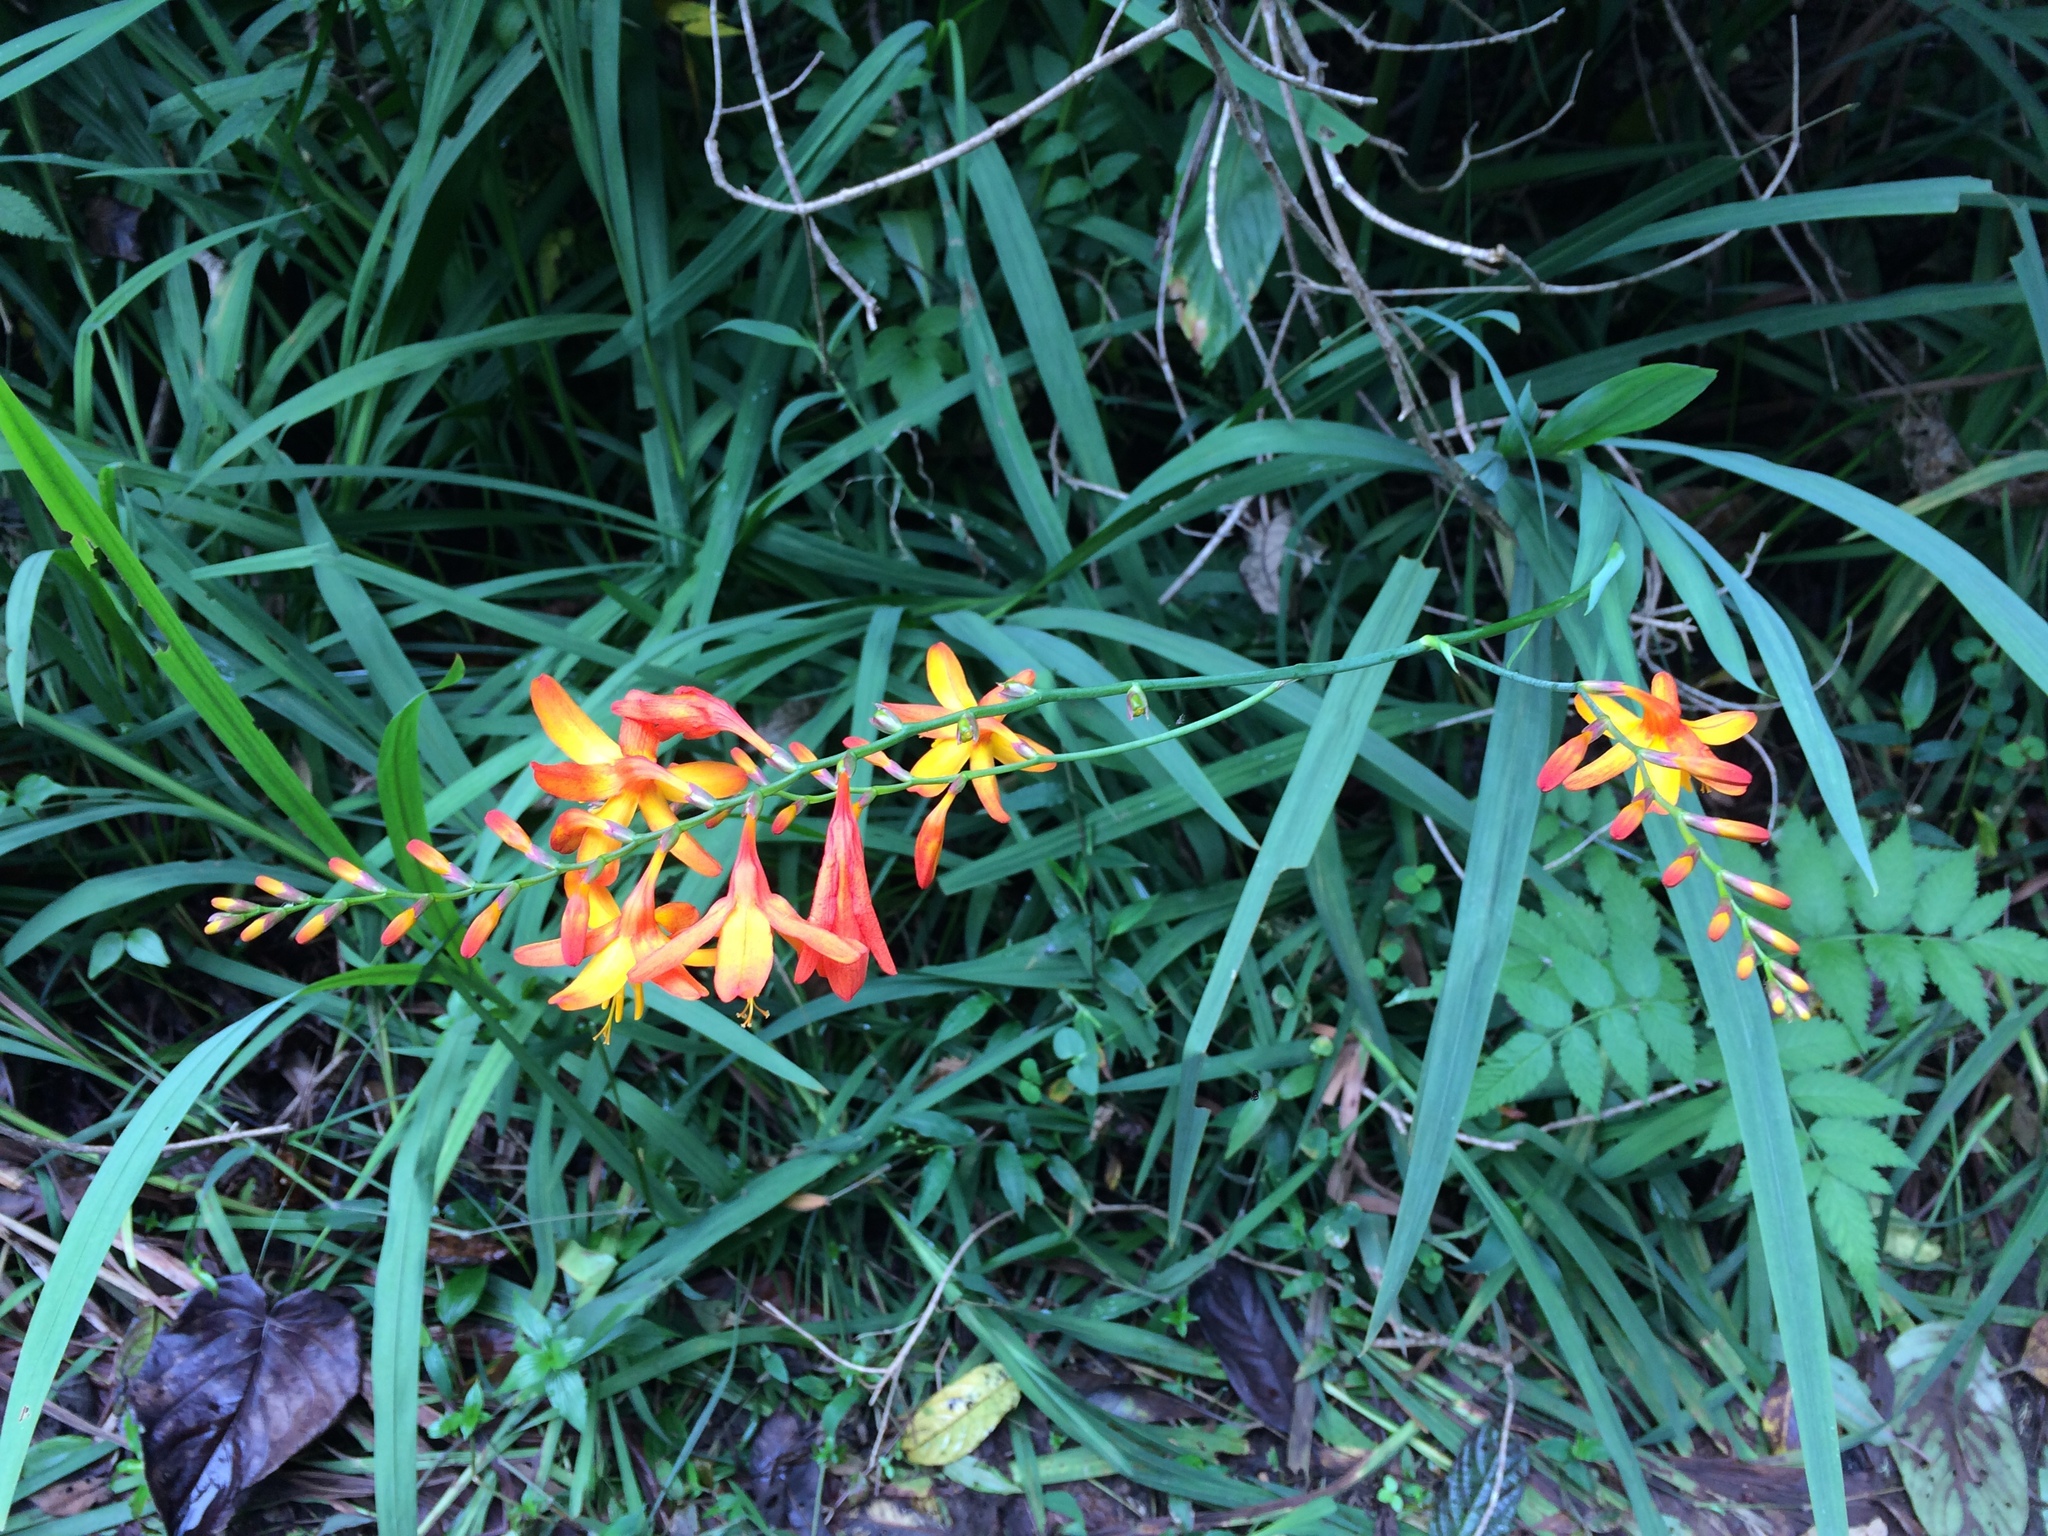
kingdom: Plantae
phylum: Tracheophyta
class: Liliopsida
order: Asparagales
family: Iridaceae
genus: Crocosmia
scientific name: Crocosmia crocosmiiflora
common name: Montbretia
